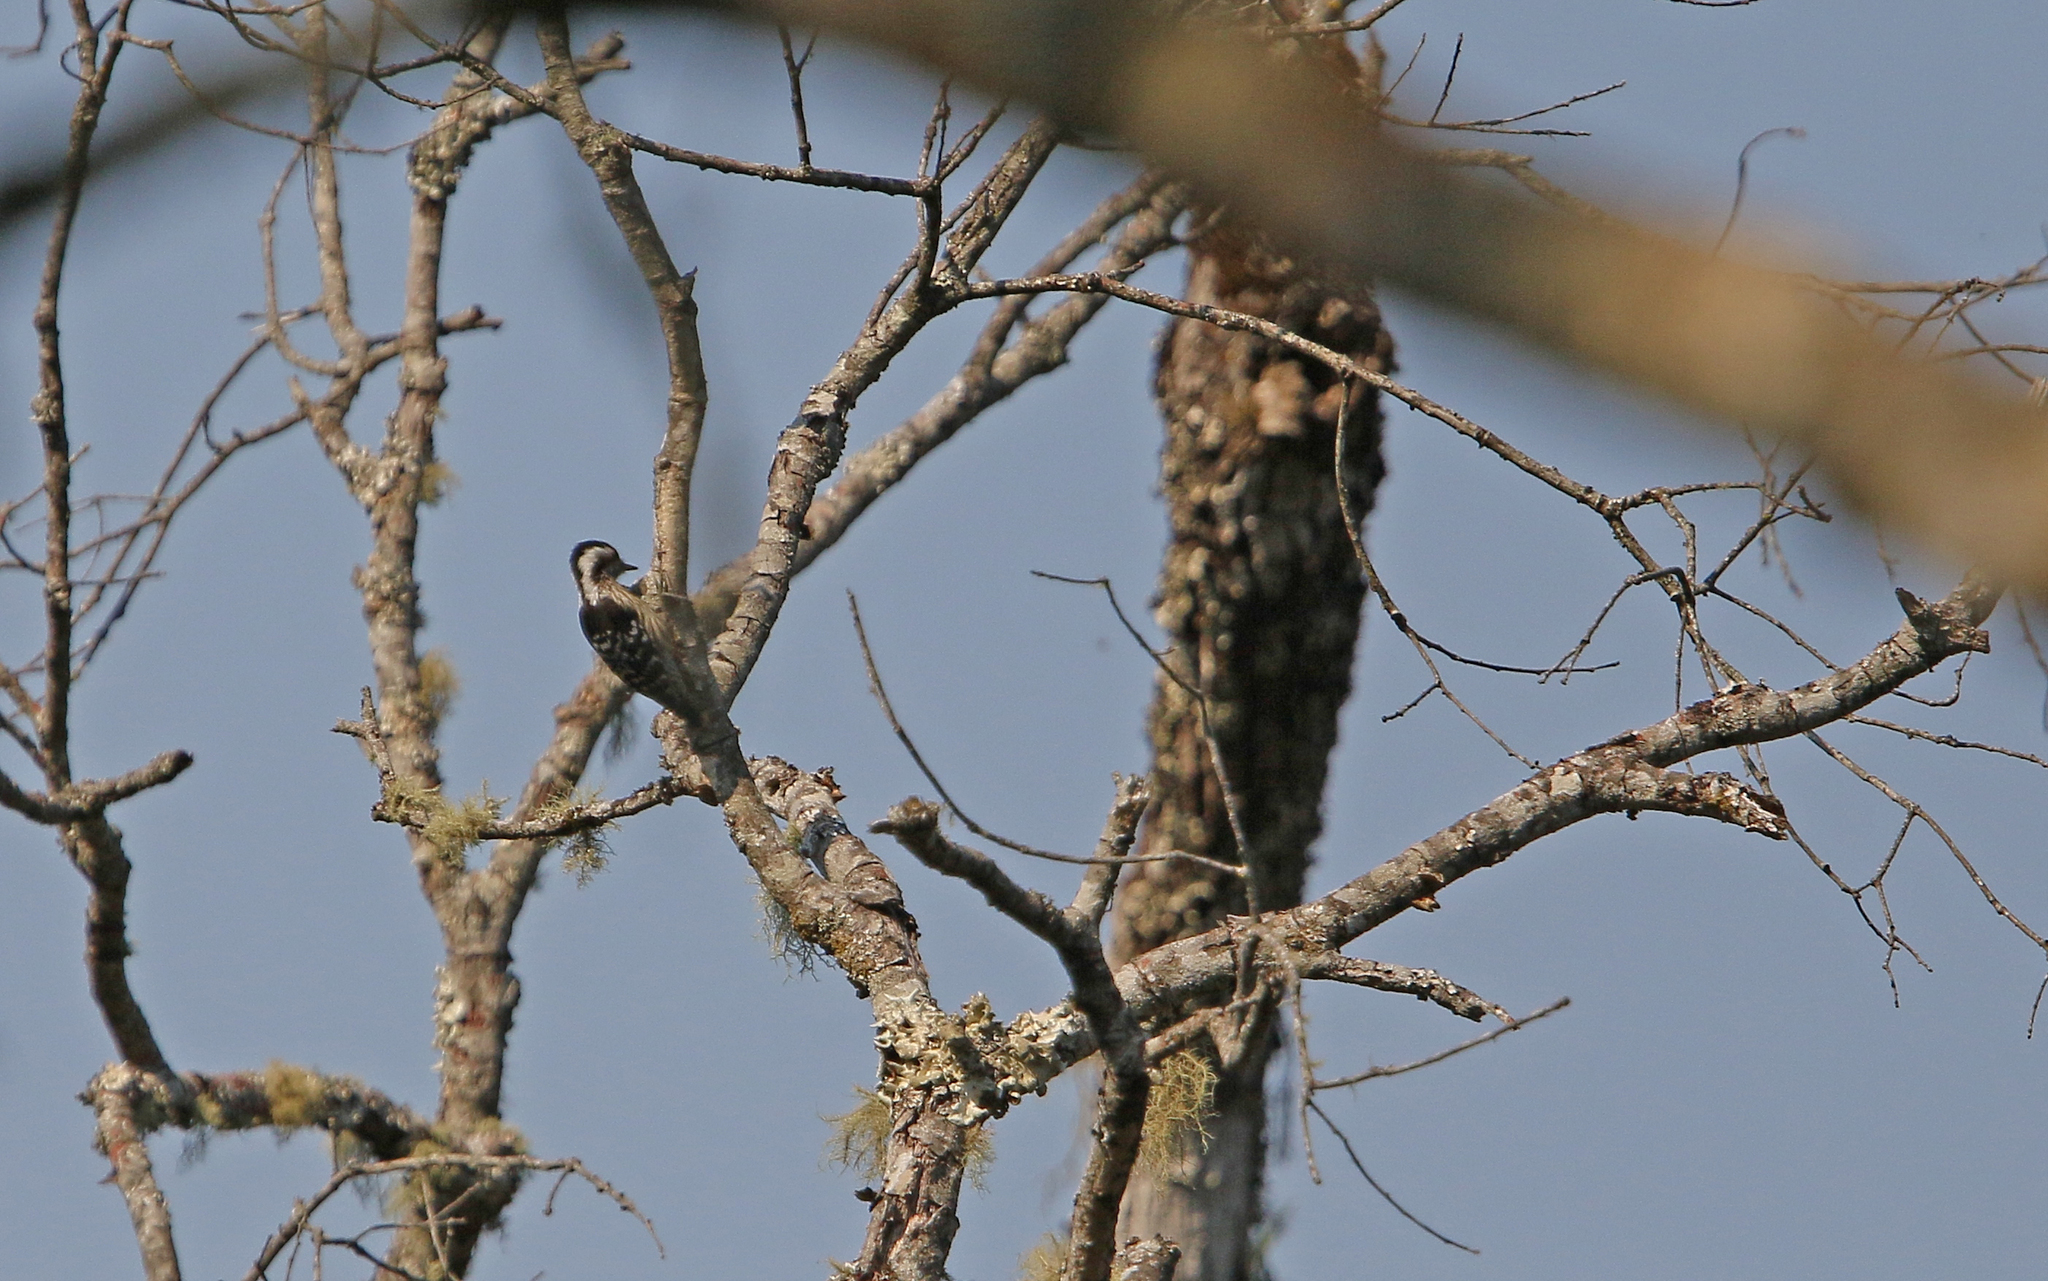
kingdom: Animalia
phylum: Chordata
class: Aves
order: Piciformes
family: Picidae
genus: Yungipicus
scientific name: Yungipicus canicapillus
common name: Grey-capped pygmy woodpecker
